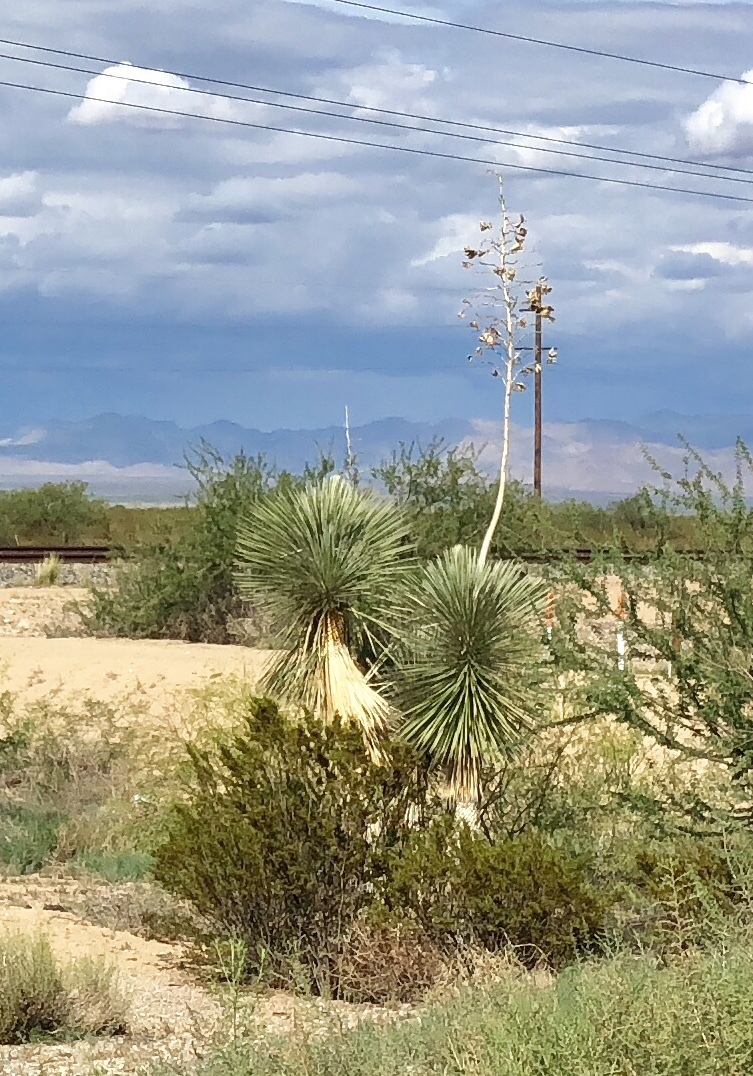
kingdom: Plantae
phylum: Tracheophyta
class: Liliopsida
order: Asparagales
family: Asparagaceae
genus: Yucca
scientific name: Yucca elata
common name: Palmella
